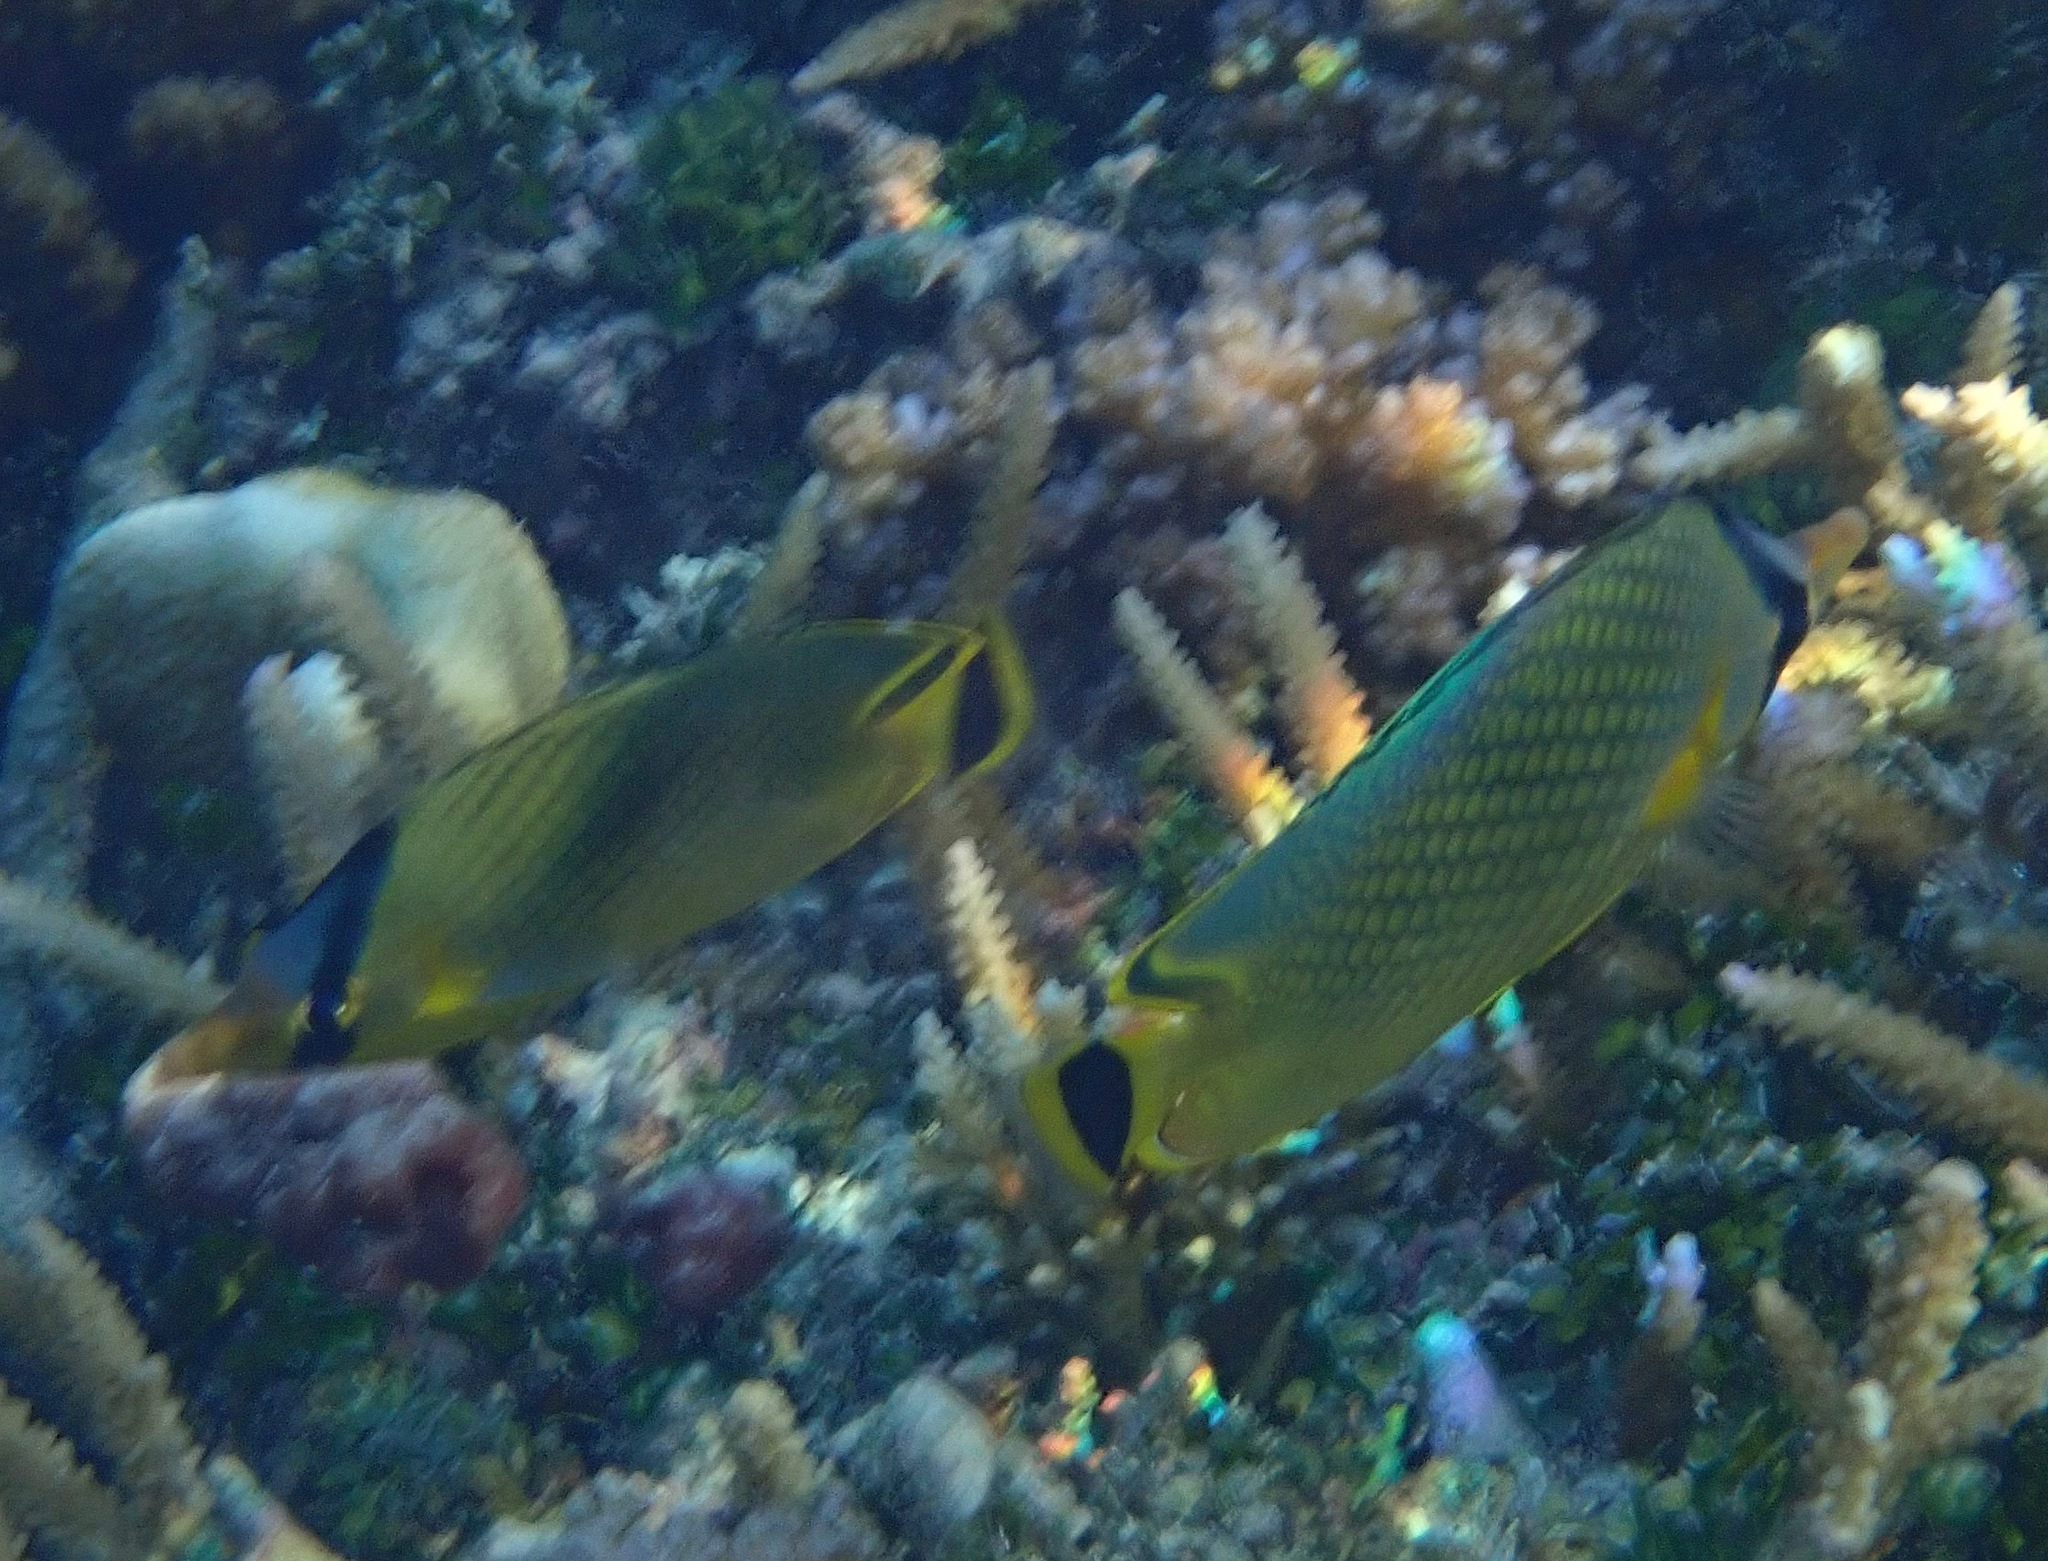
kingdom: Animalia
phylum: Chordata
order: Perciformes
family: Chaetodontidae
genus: Chaetodon
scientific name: Chaetodon rafflesii
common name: Latticed butterflyfish
